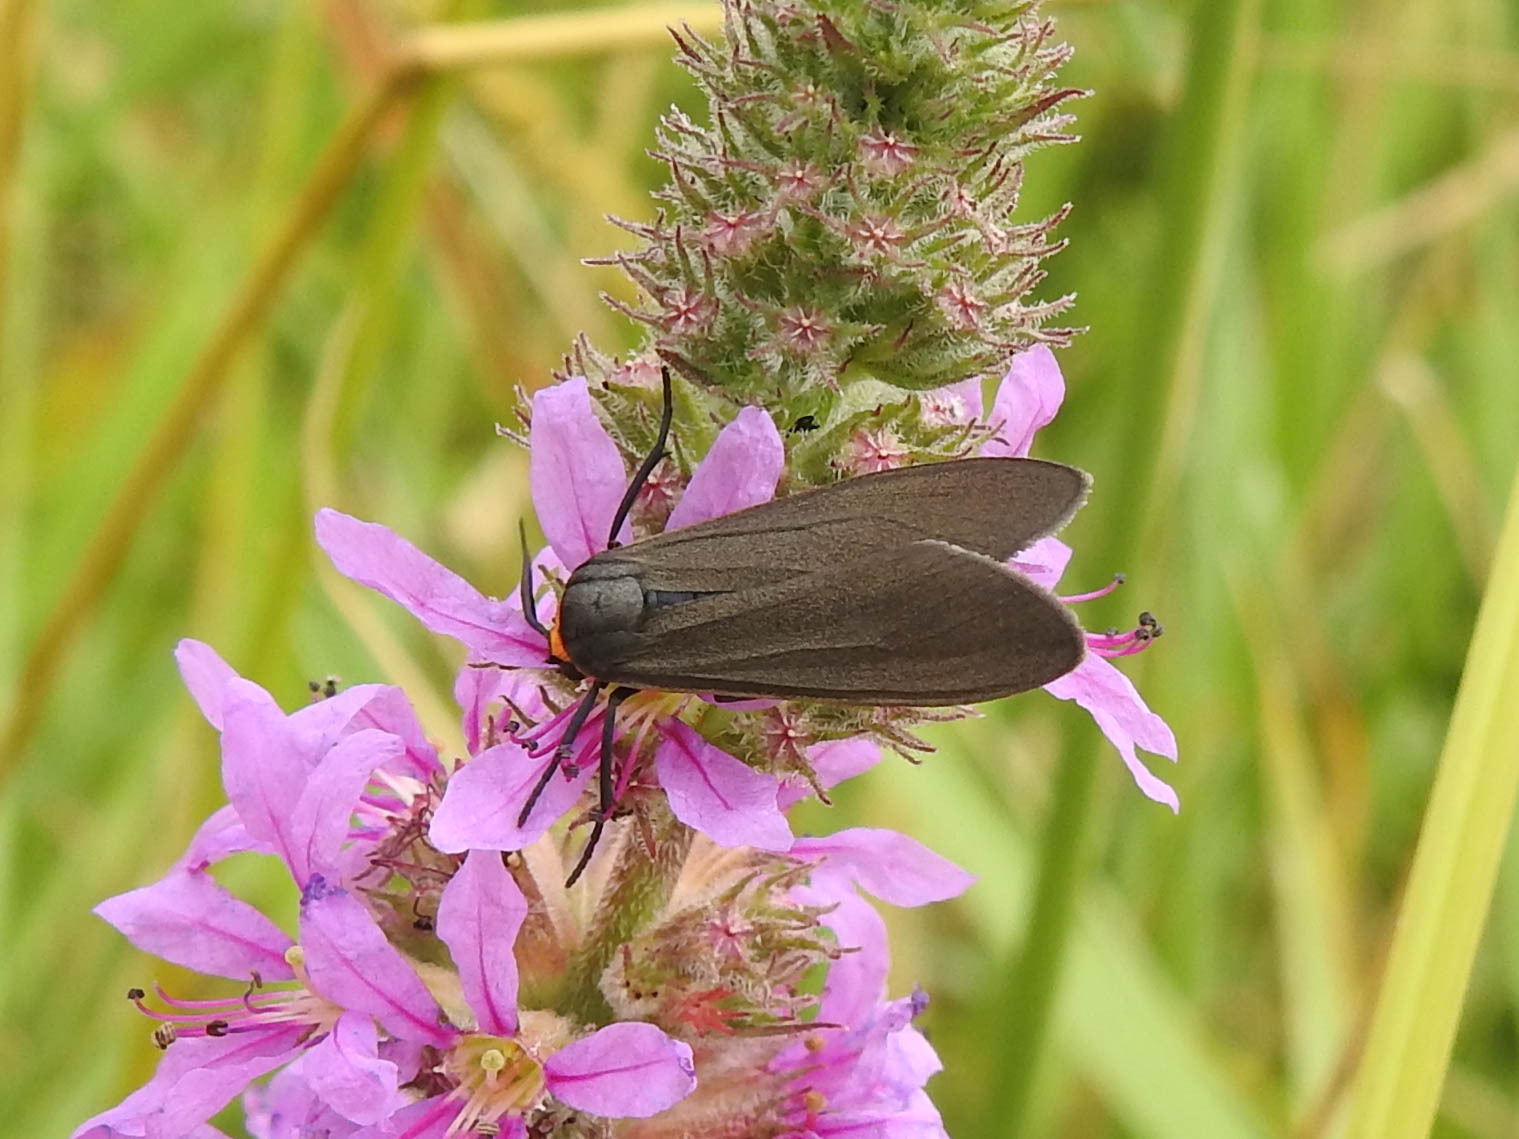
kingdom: Animalia
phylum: Arthropoda
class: Insecta
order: Lepidoptera
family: Erebidae
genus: Cisseps
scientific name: Cisseps fulvicollis
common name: Yellow-collared scape moth
